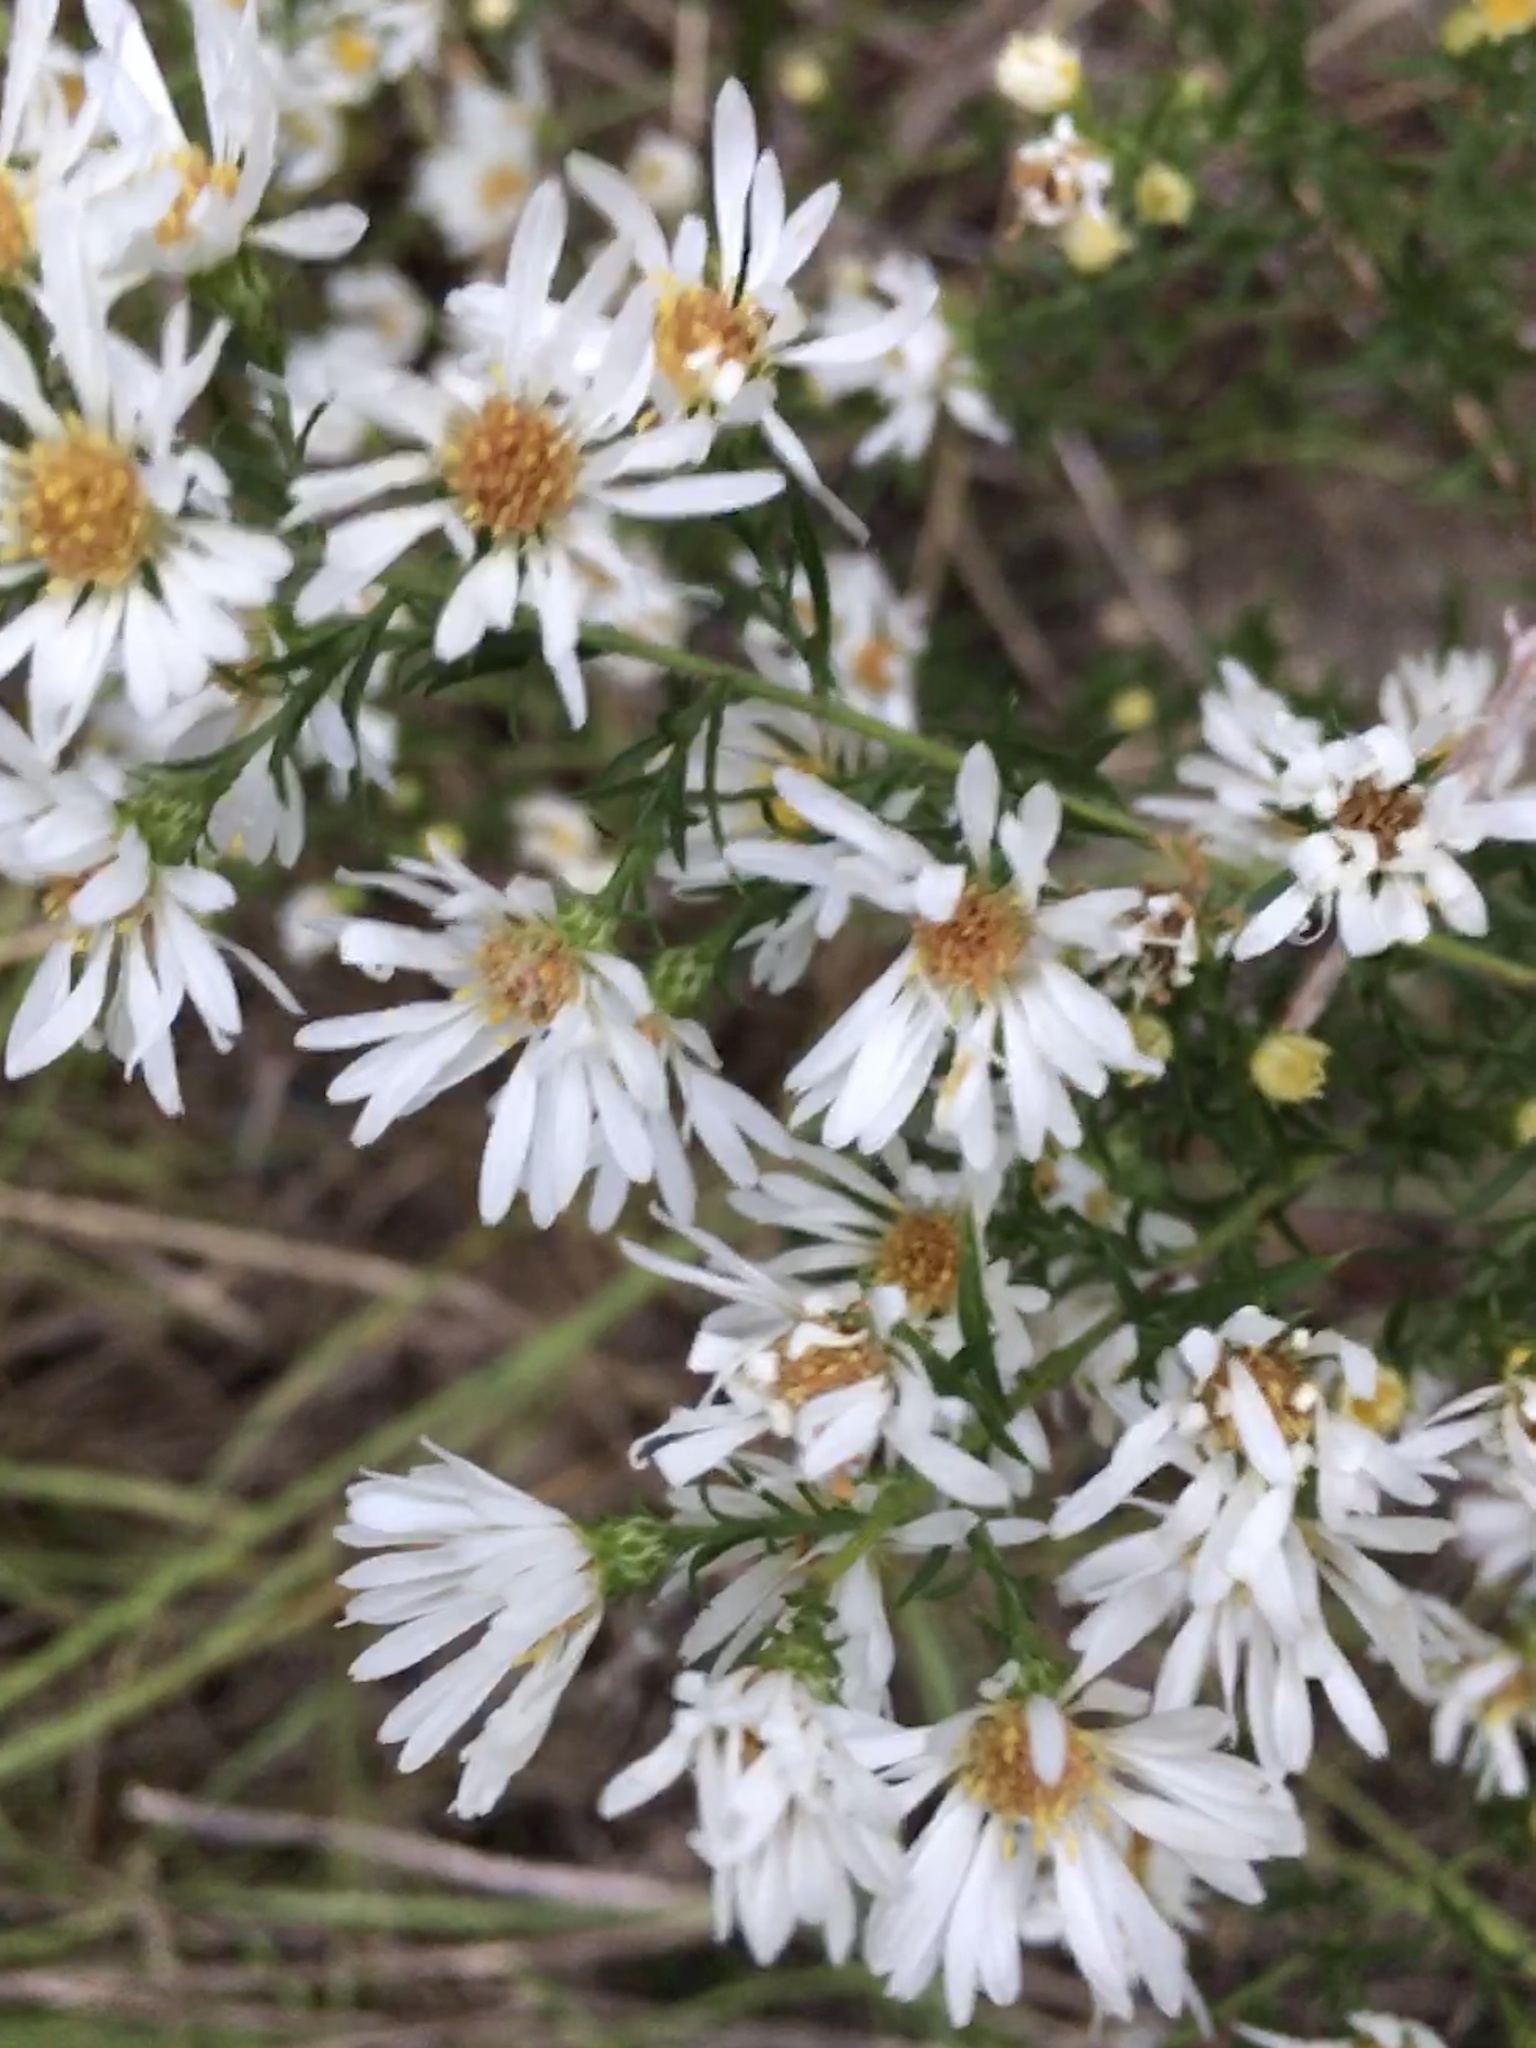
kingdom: Plantae
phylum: Tracheophyta
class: Magnoliopsida
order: Asterales
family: Asteraceae
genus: Symphyotrichum
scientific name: Symphyotrichum pilosum
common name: Awl aster
